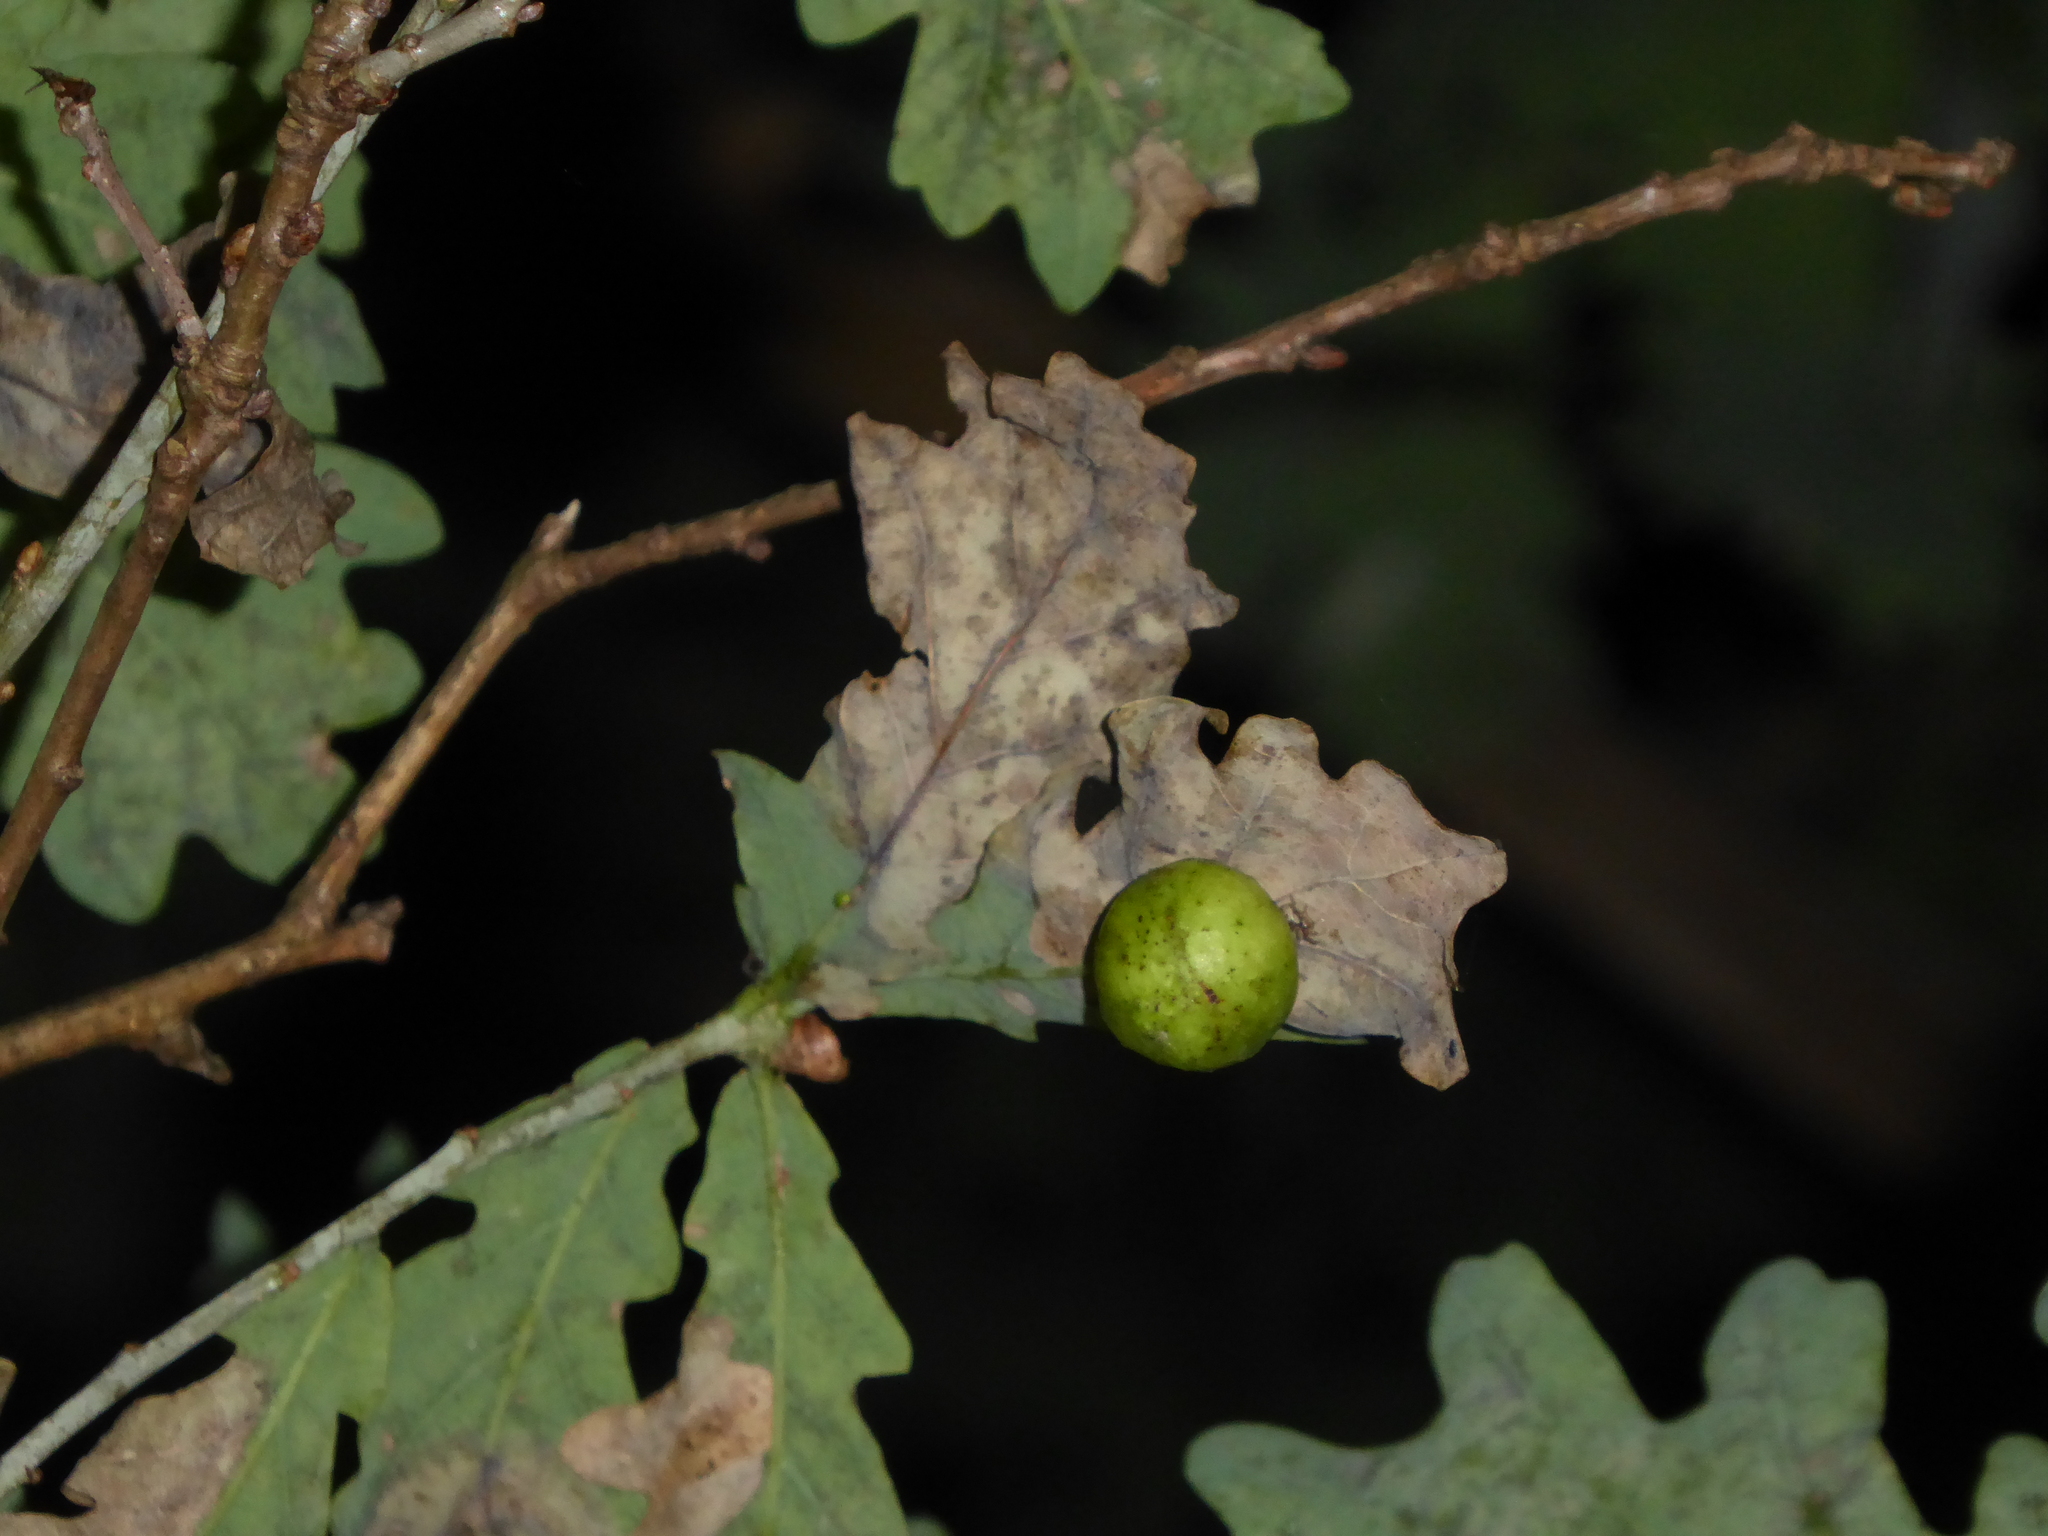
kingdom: Animalia
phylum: Arthropoda
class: Insecta
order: Hymenoptera
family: Cynipidae
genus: Cynips
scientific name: Cynips quercusfolii
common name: Cherry gall
